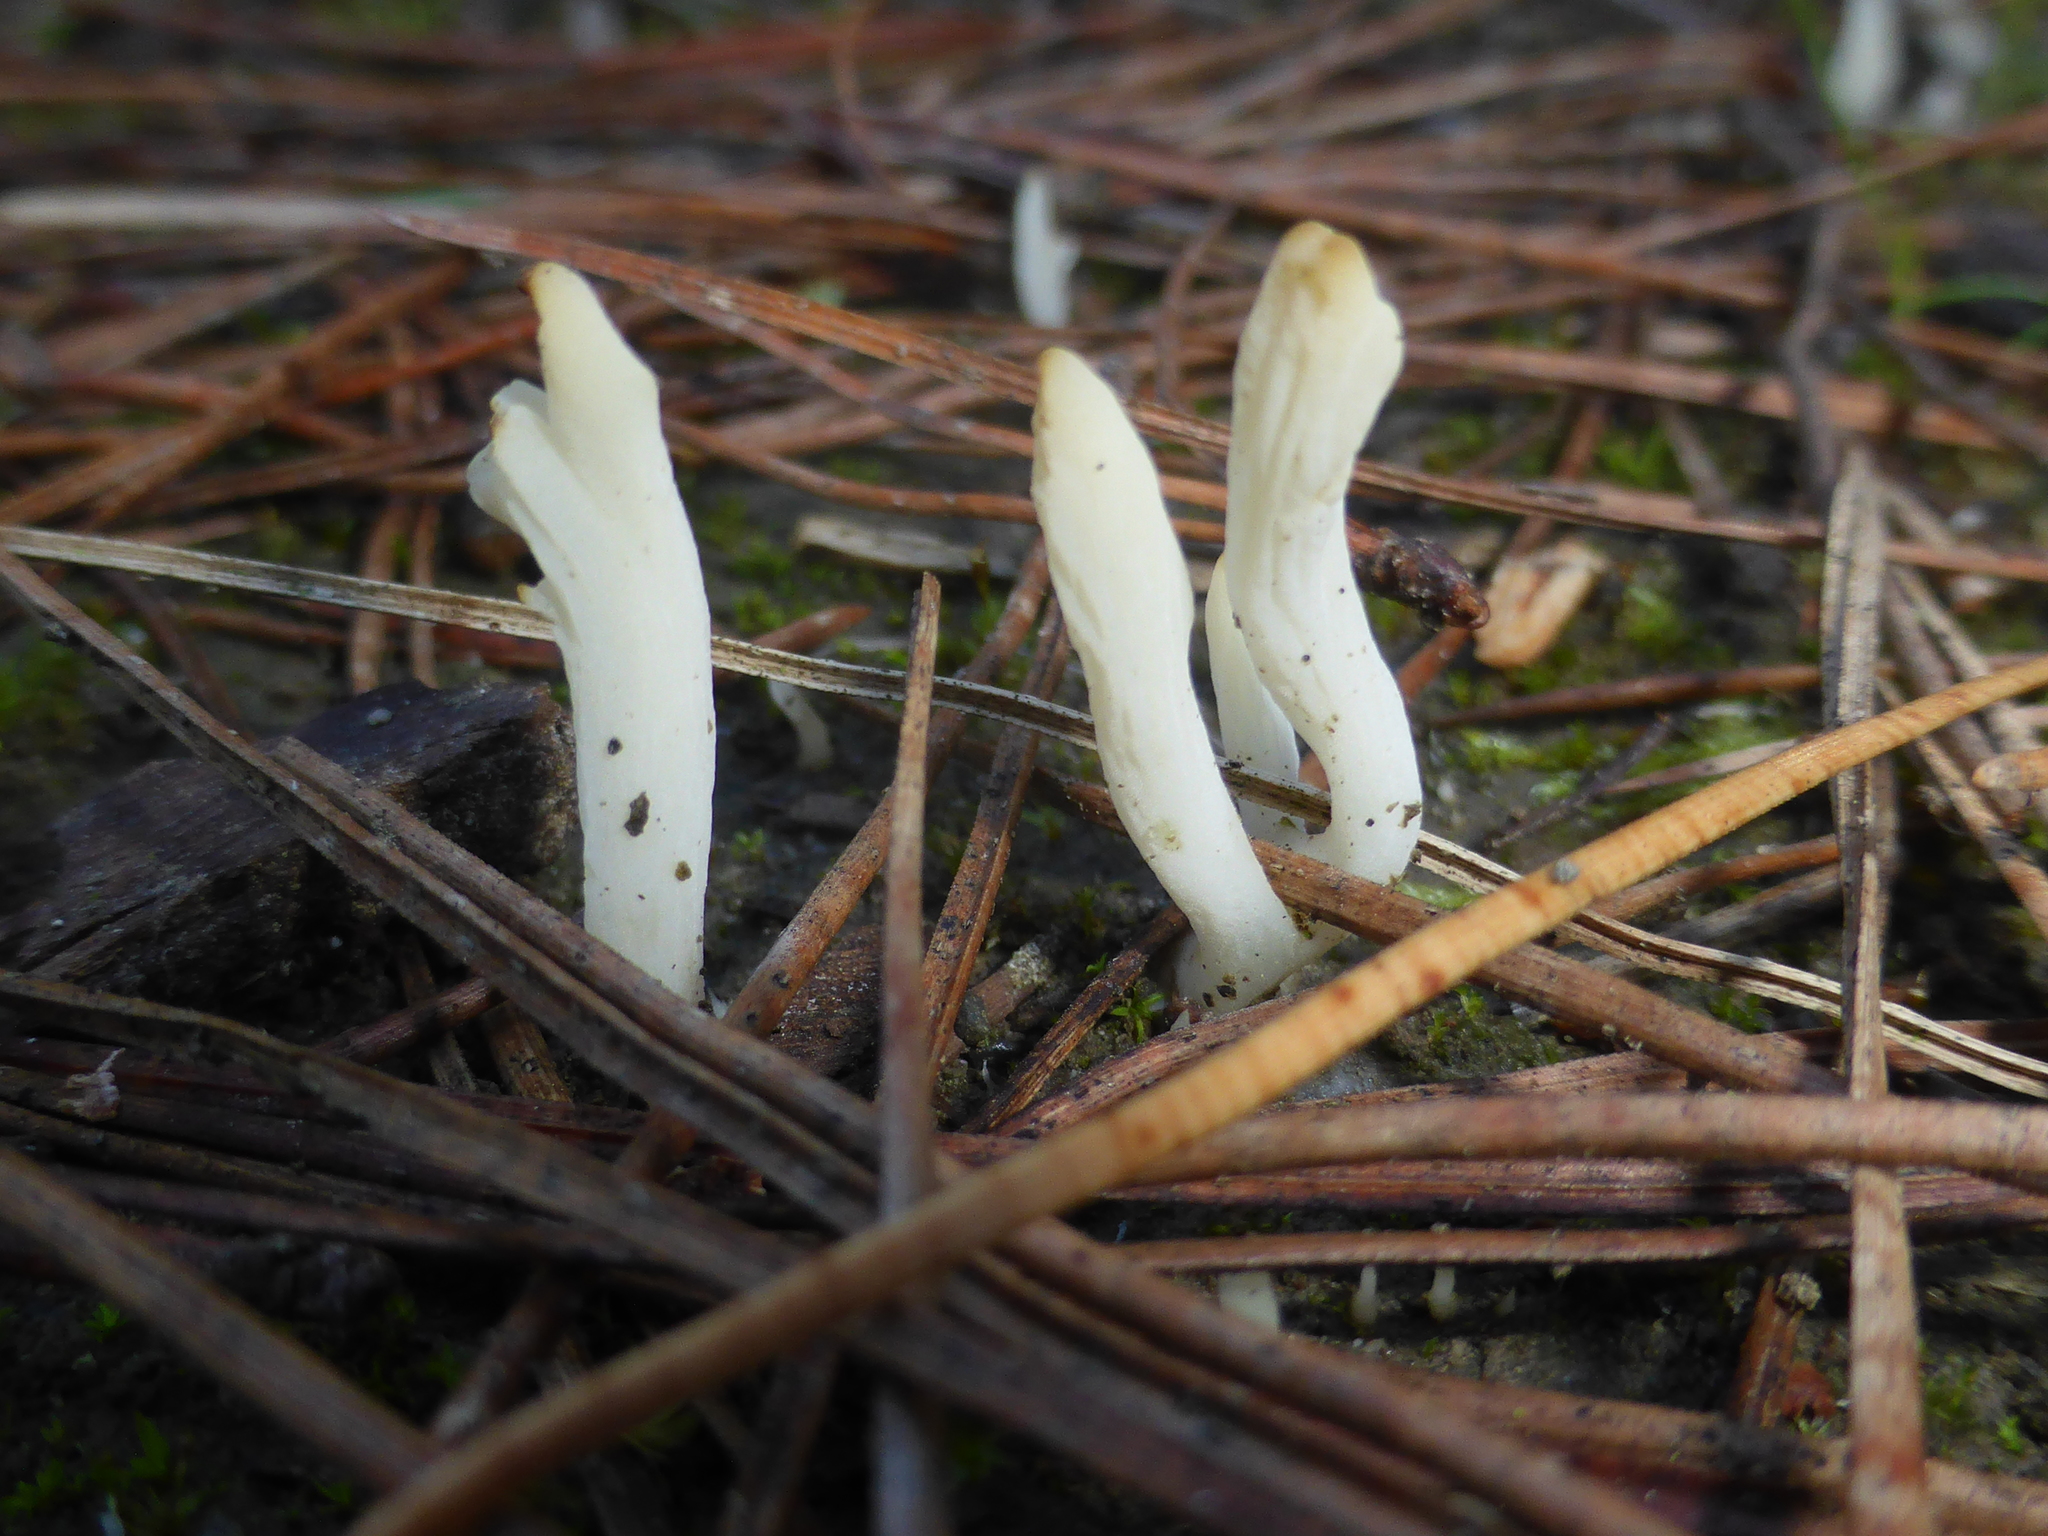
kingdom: Fungi
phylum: Basidiomycota
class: Agaricomycetes
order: Cantharellales
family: Hydnaceae
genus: Clavulina
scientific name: Clavulina rugosa
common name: Wrinkled club
